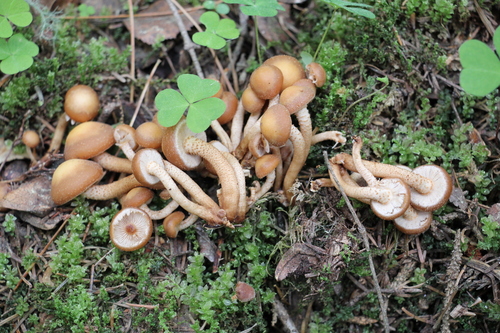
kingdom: Fungi
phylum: Basidiomycota
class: Agaricomycetes
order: Agaricales
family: Strophariaceae
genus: Kuehneromyces
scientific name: Kuehneromyces mutabilis
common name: Sheathed woodtuft
